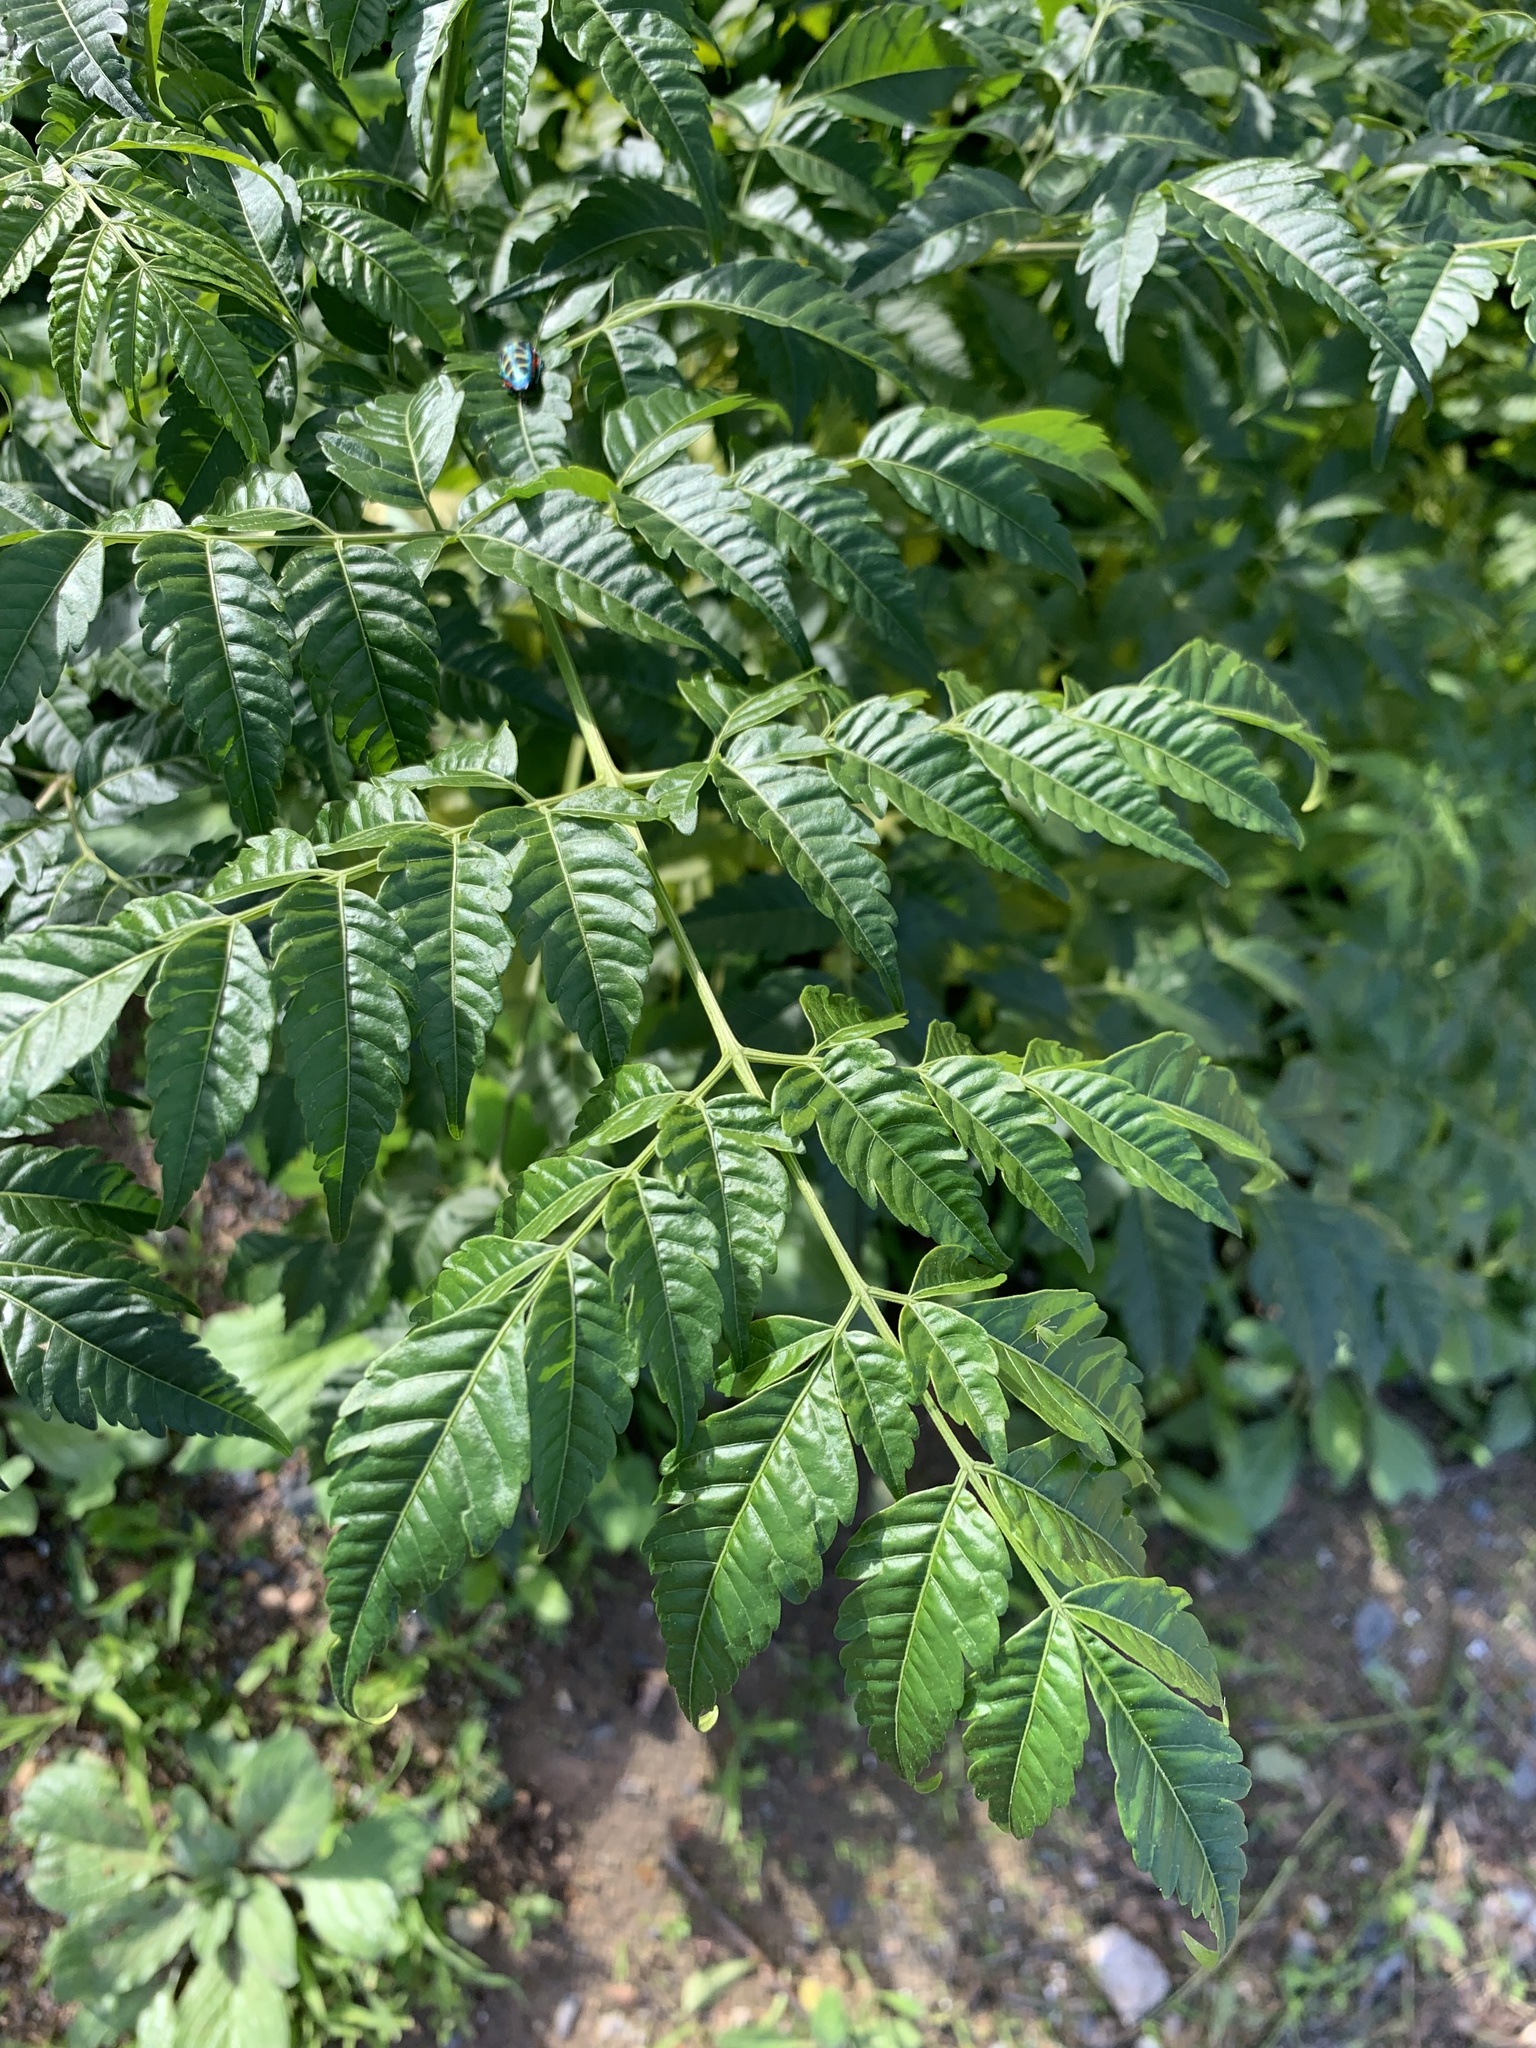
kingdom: Plantae
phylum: Tracheophyta
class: Magnoliopsida
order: Sapindales
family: Meliaceae
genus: Melia
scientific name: Melia azedarach
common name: Chinaberrytree
